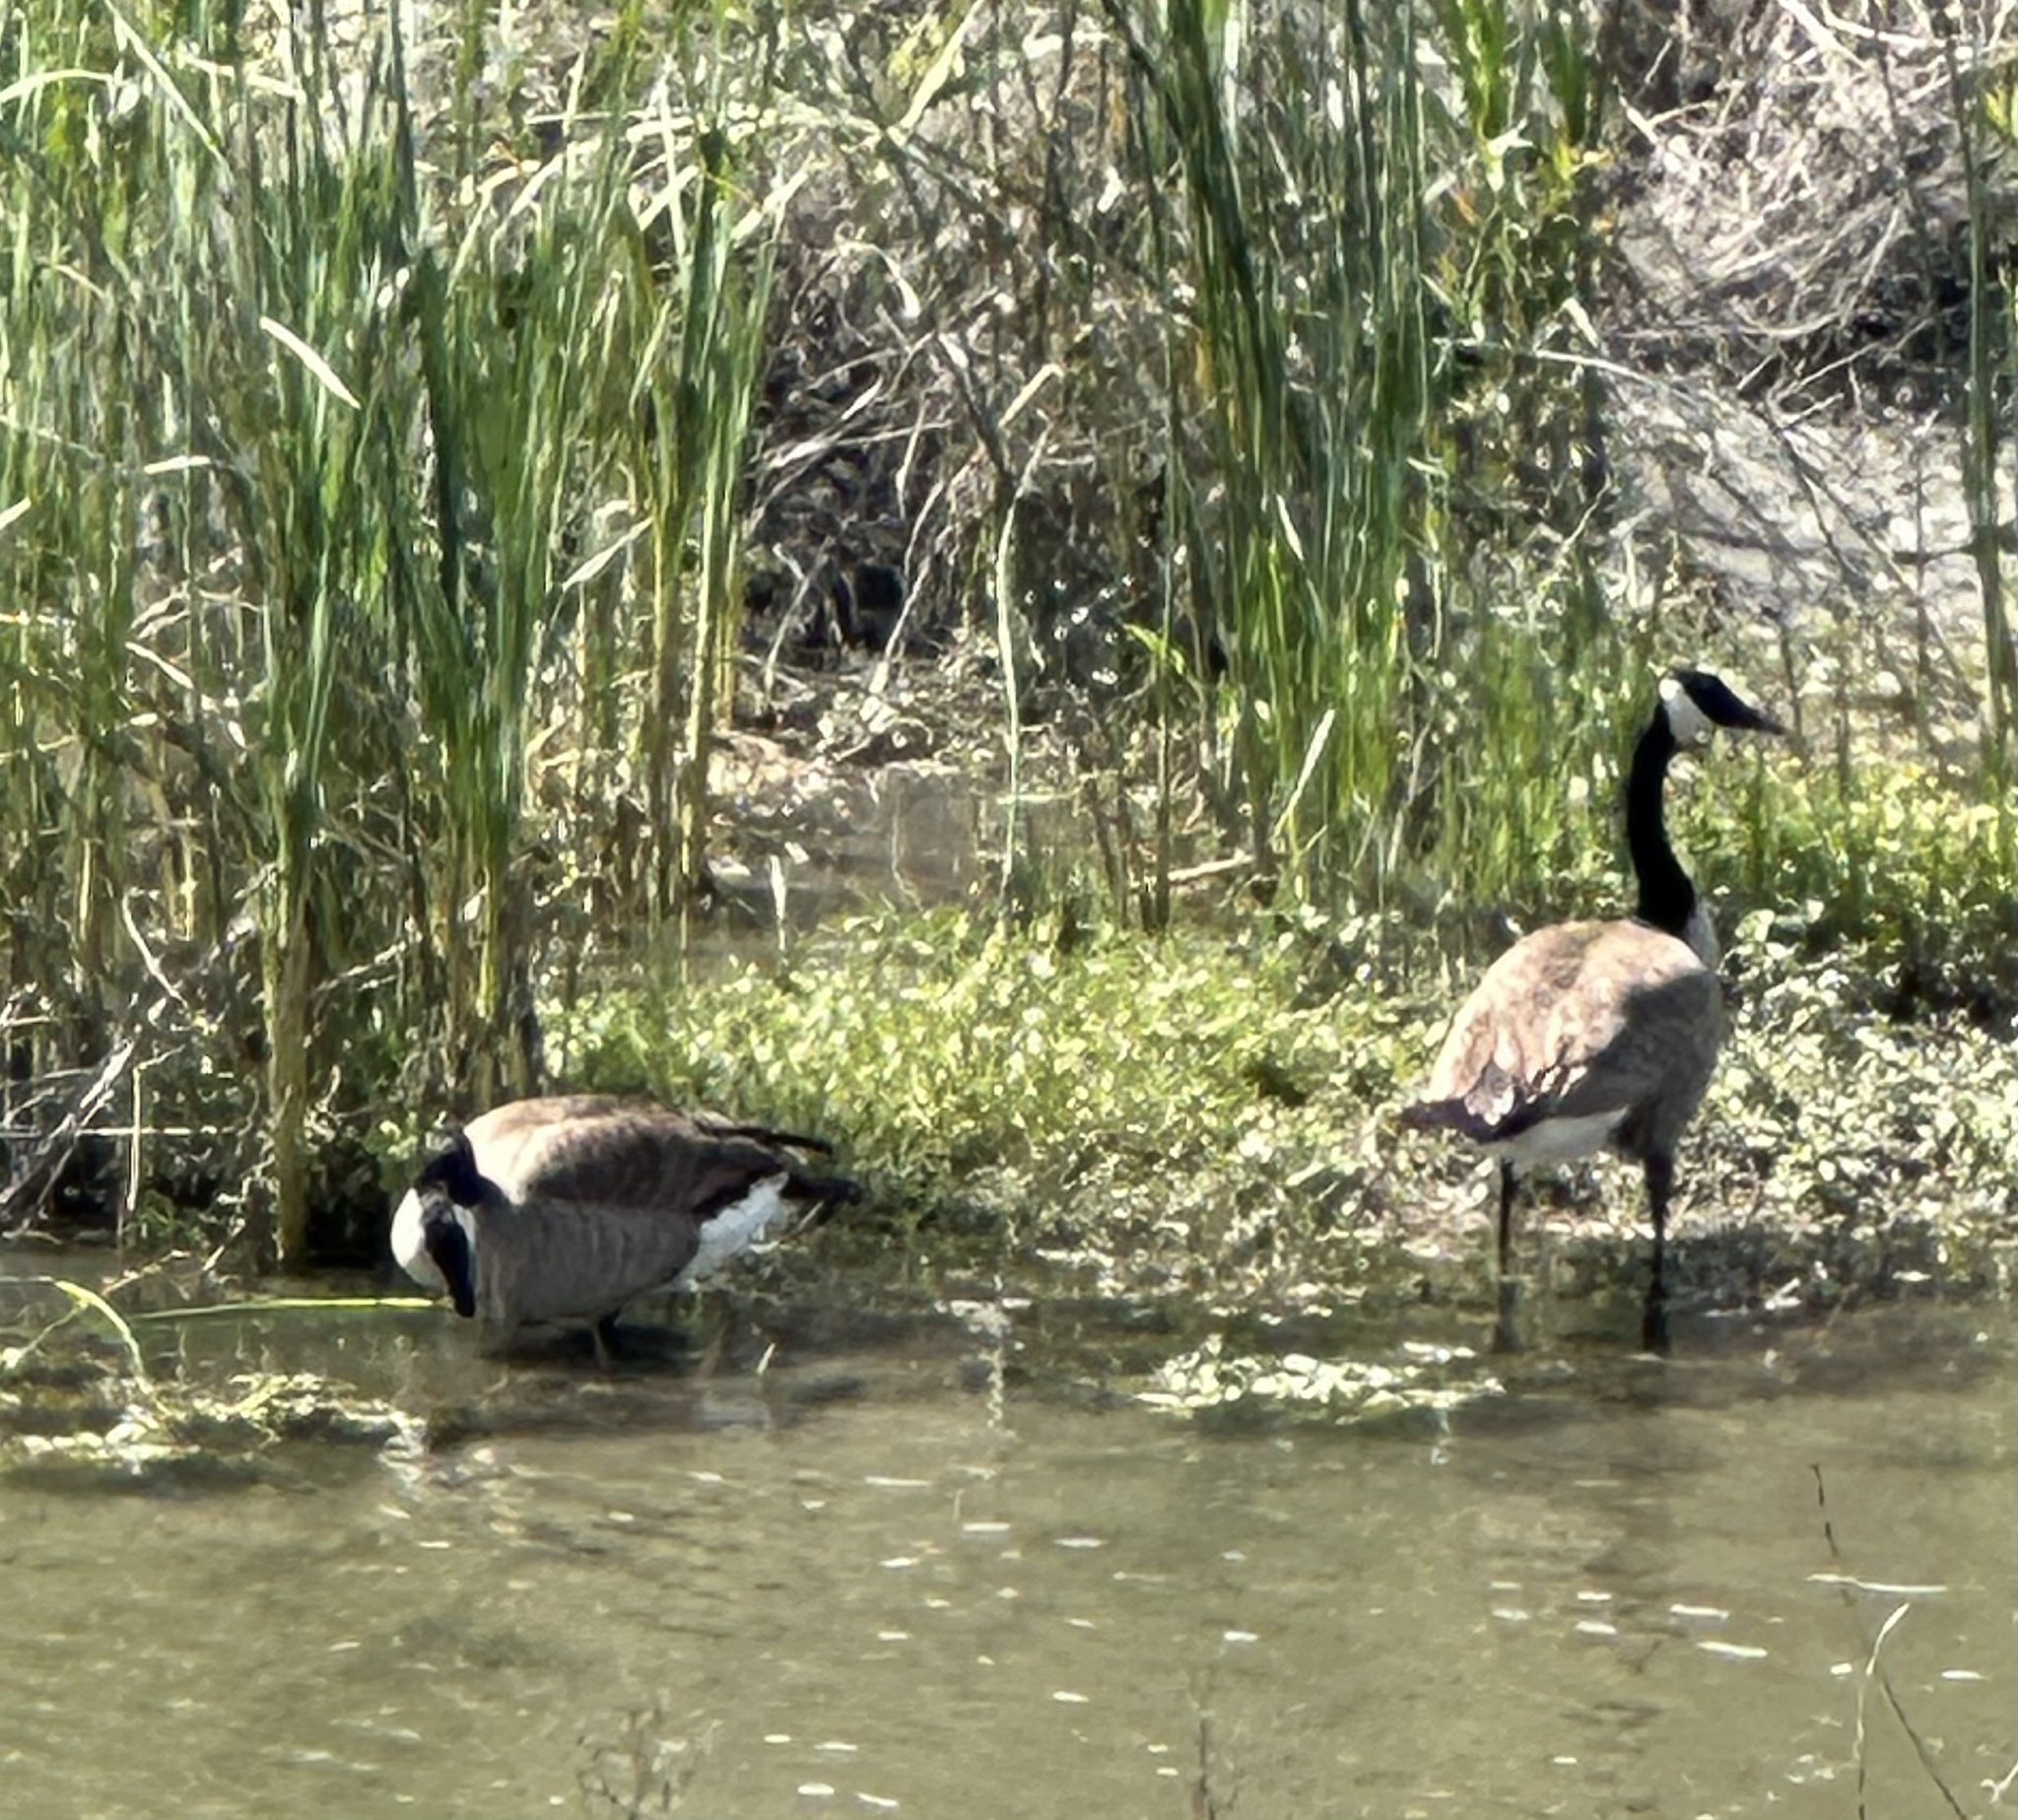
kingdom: Animalia
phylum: Chordata
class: Aves
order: Anseriformes
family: Anatidae
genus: Branta
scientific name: Branta canadensis
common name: Canada goose
